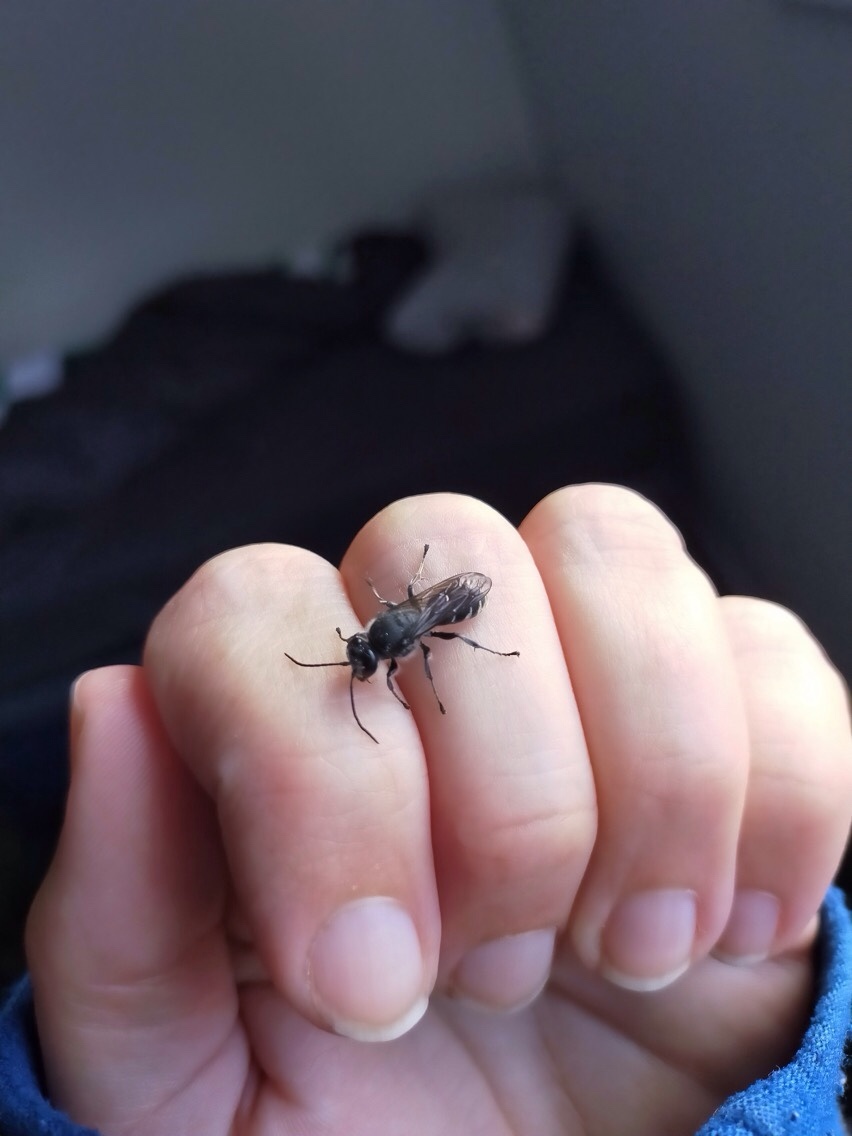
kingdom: Animalia
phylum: Arthropoda
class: Insecta
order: Hymenoptera
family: Crabronidae
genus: Pison
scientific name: Pison spinolae
